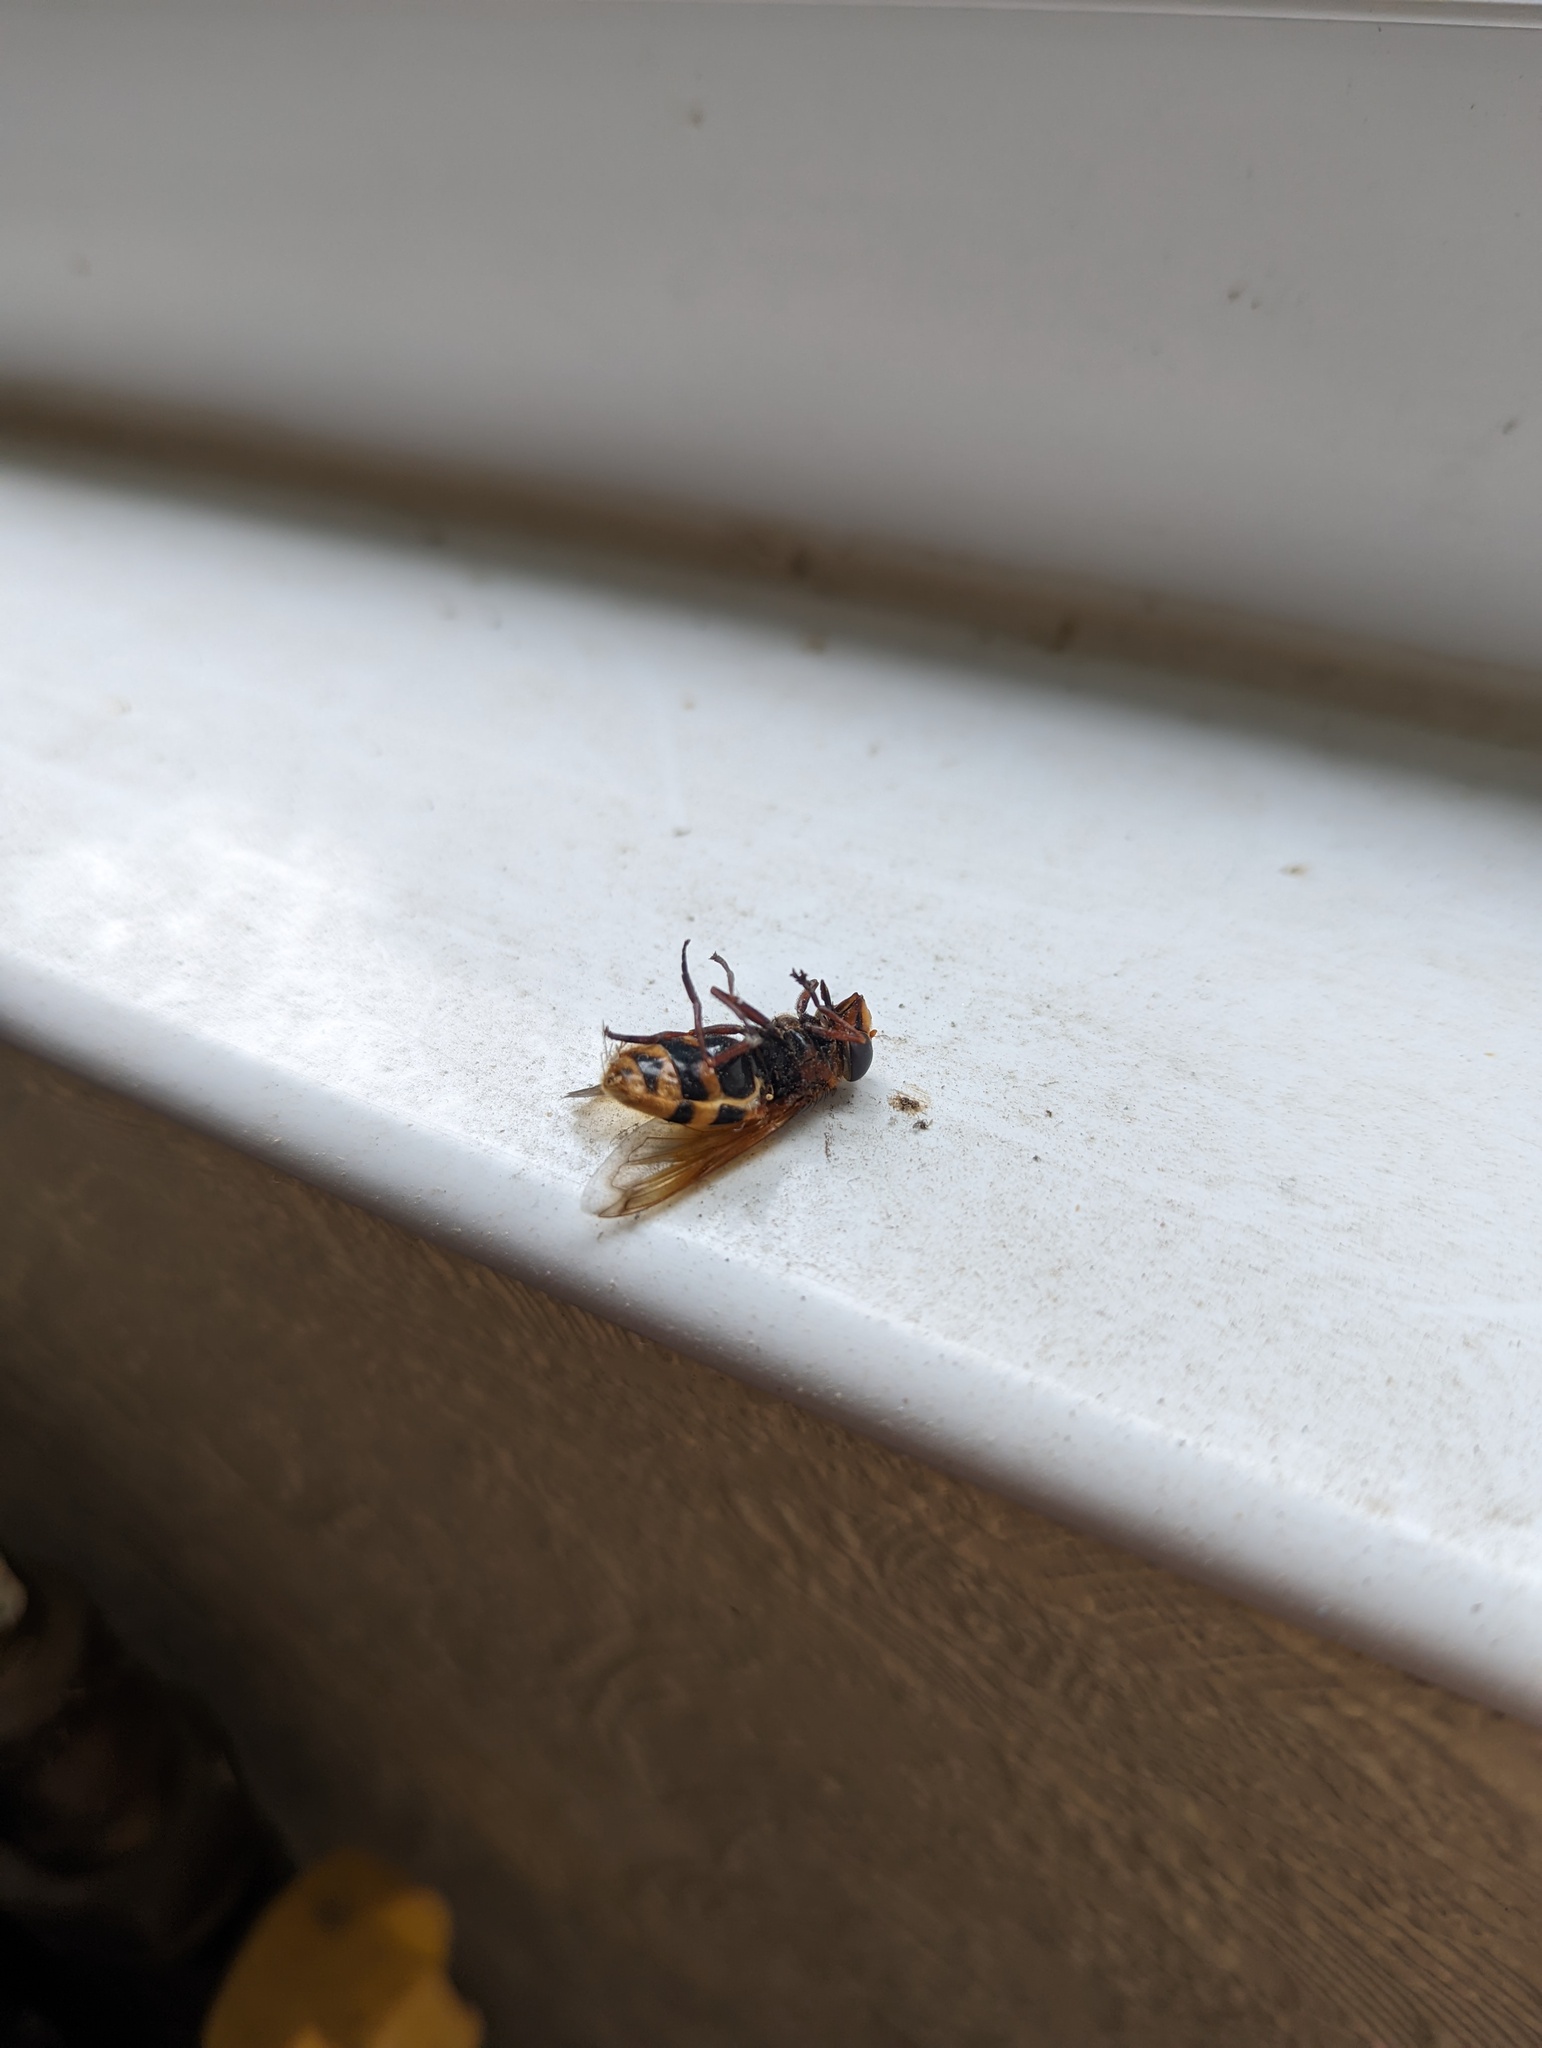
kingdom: Animalia
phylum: Arthropoda
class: Insecta
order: Diptera
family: Syrphidae
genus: Volucella
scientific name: Volucella zonaria
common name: Hornet hoverfly
